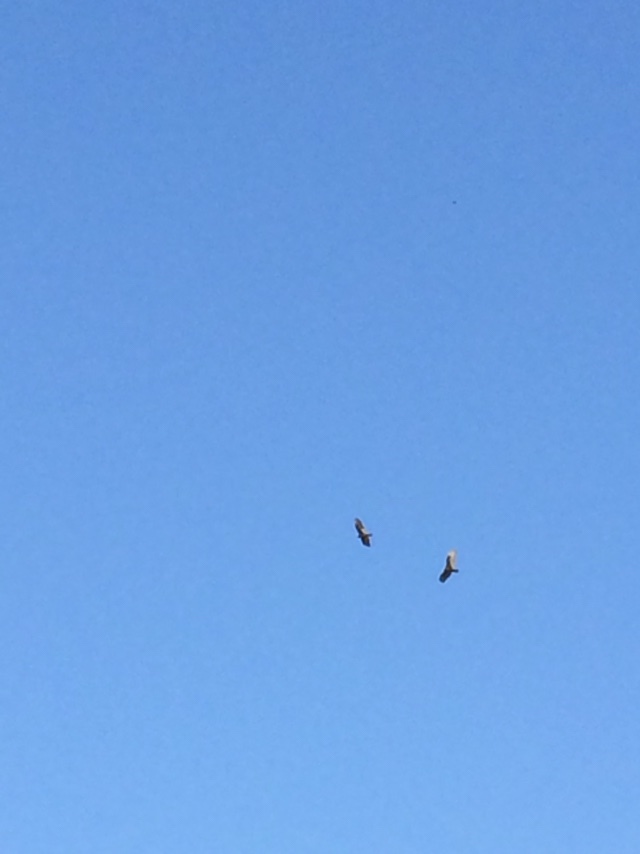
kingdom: Animalia
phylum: Chordata
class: Aves
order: Accipitriformes
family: Cathartidae
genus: Cathartes
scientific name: Cathartes aura
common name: Turkey vulture
